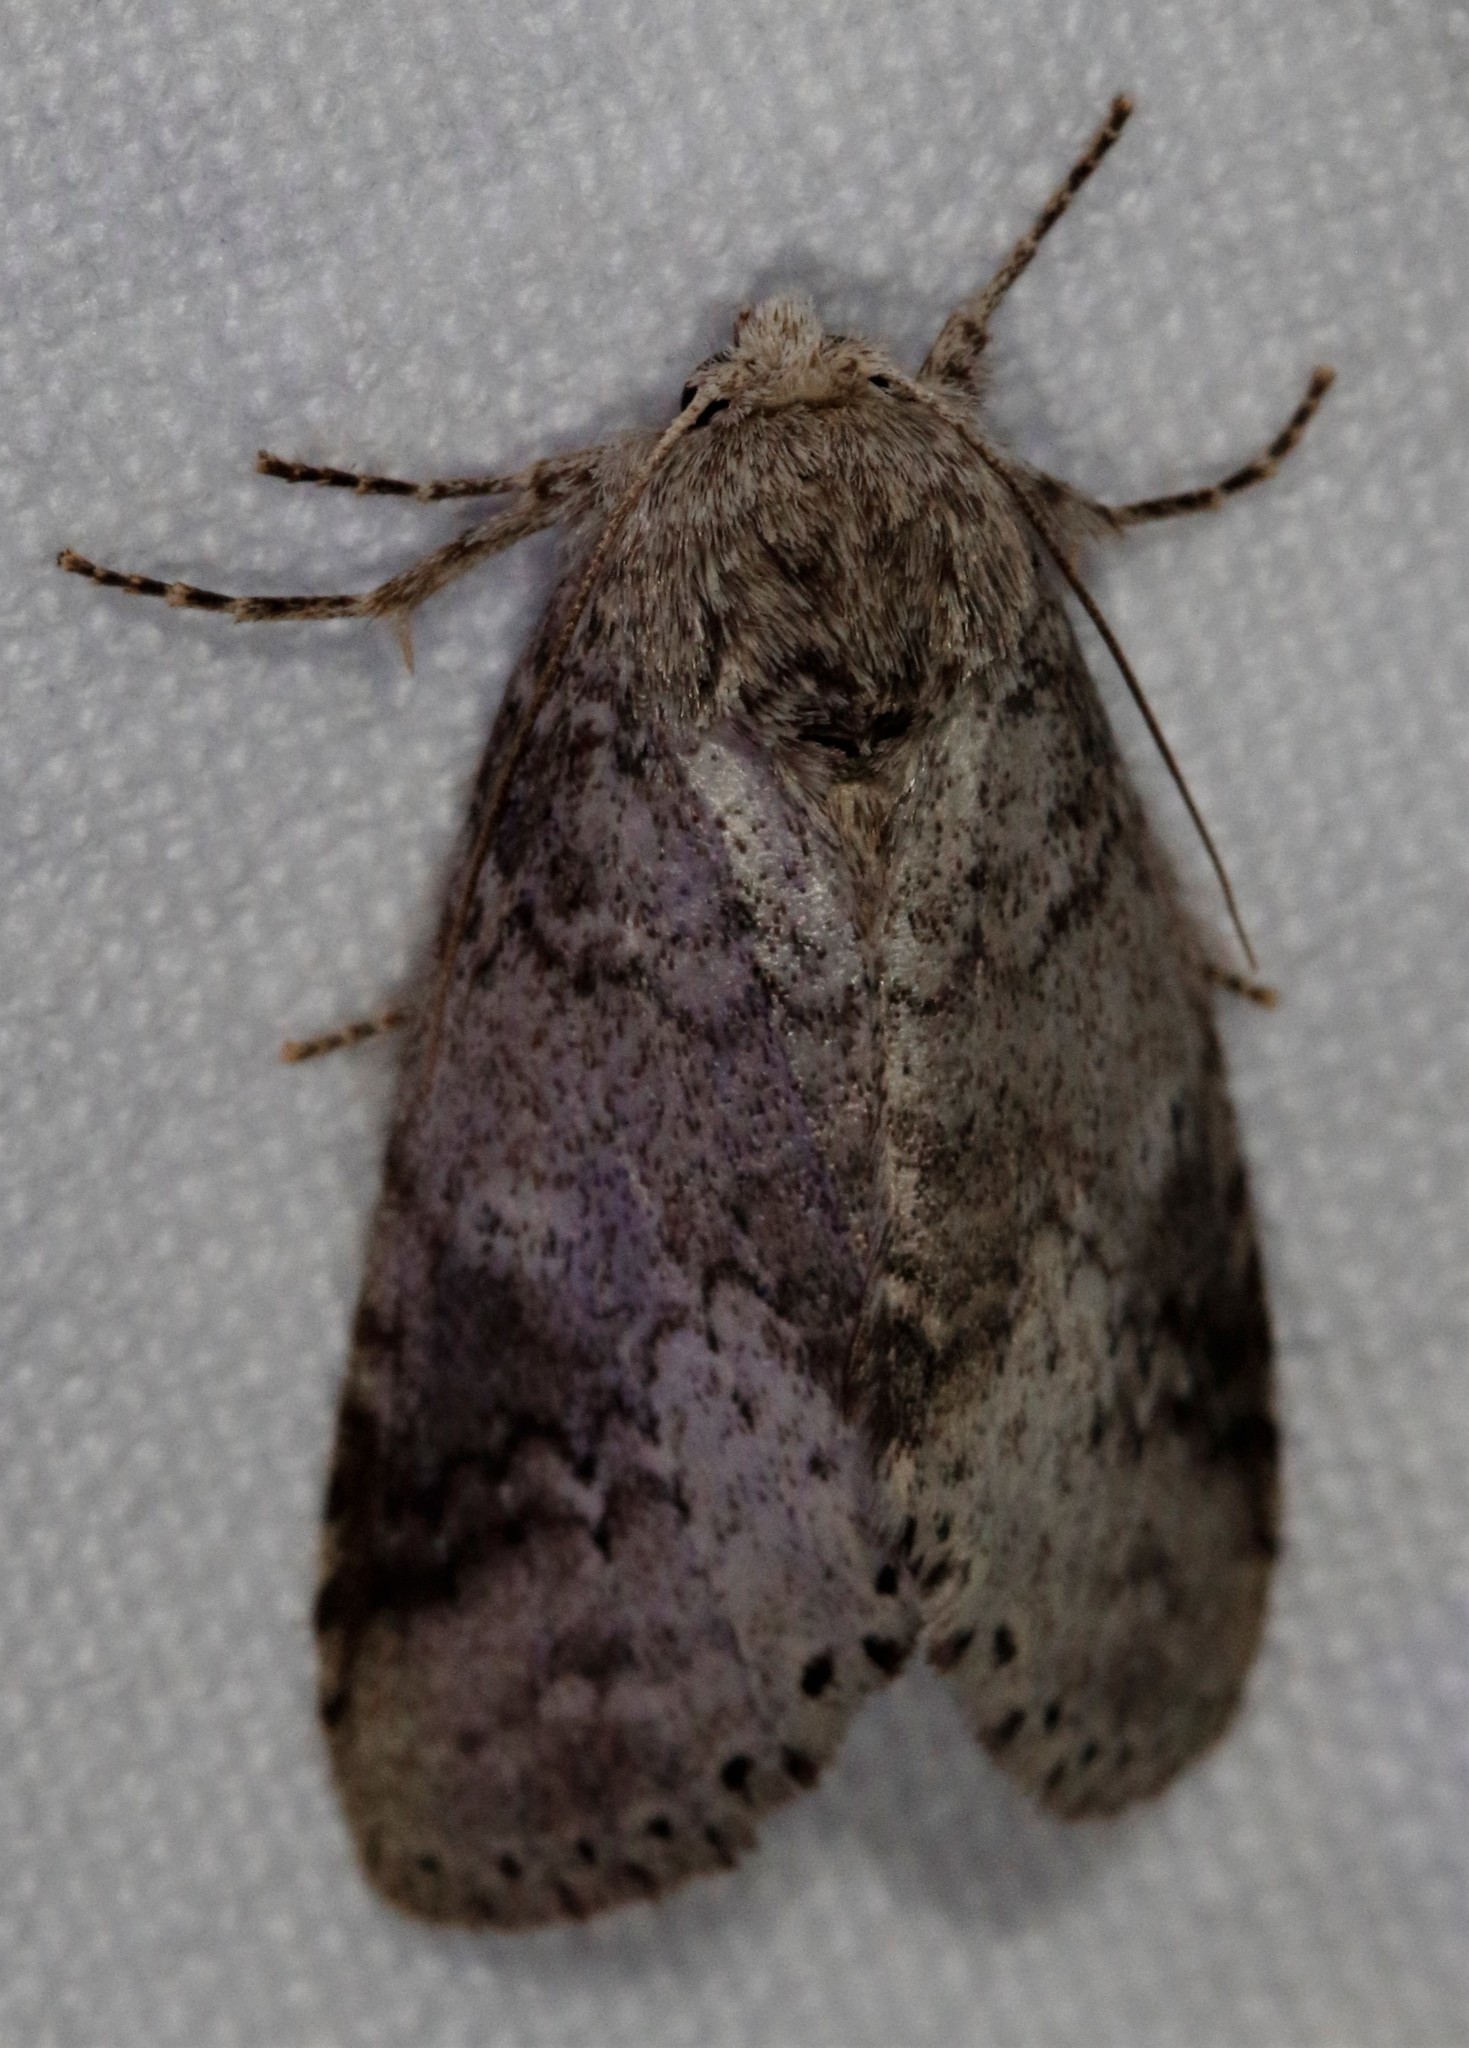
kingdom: Animalia
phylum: Arthropoda
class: Insecta
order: Lepidoptera
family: Notodontidae
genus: Lochmaeus
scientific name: Lochmaeus manteo
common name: Variable oakleaf caterpillar moth
